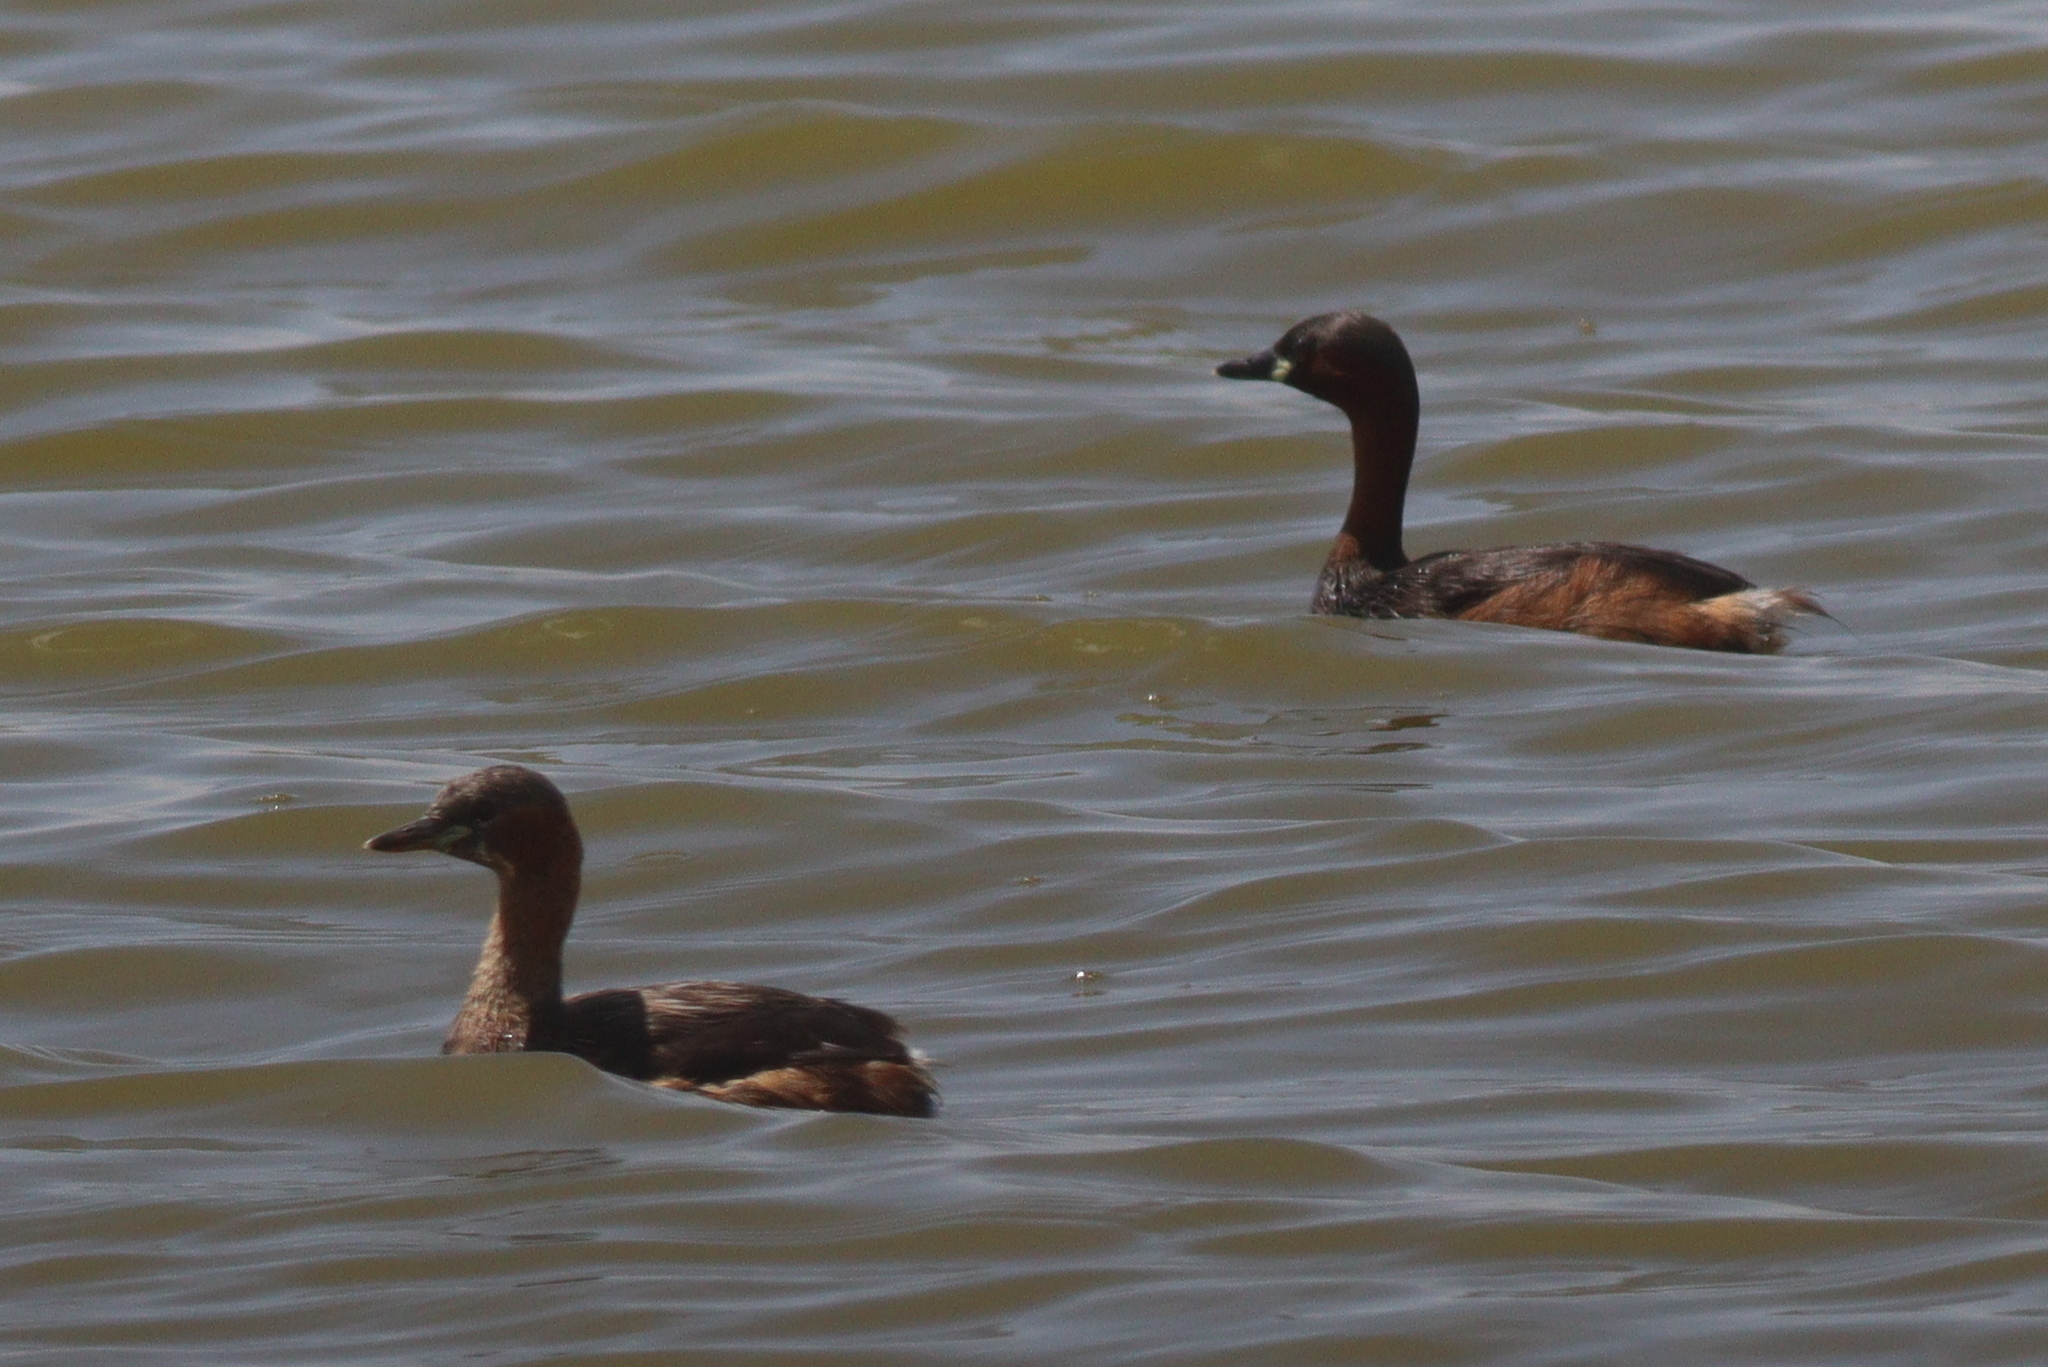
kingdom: Animalia
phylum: Chordata
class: Aves
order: Podicipediformes
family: Podicipedidae
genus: Tachybaptus
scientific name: Tachybaptus ruficollis
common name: Little grebe
